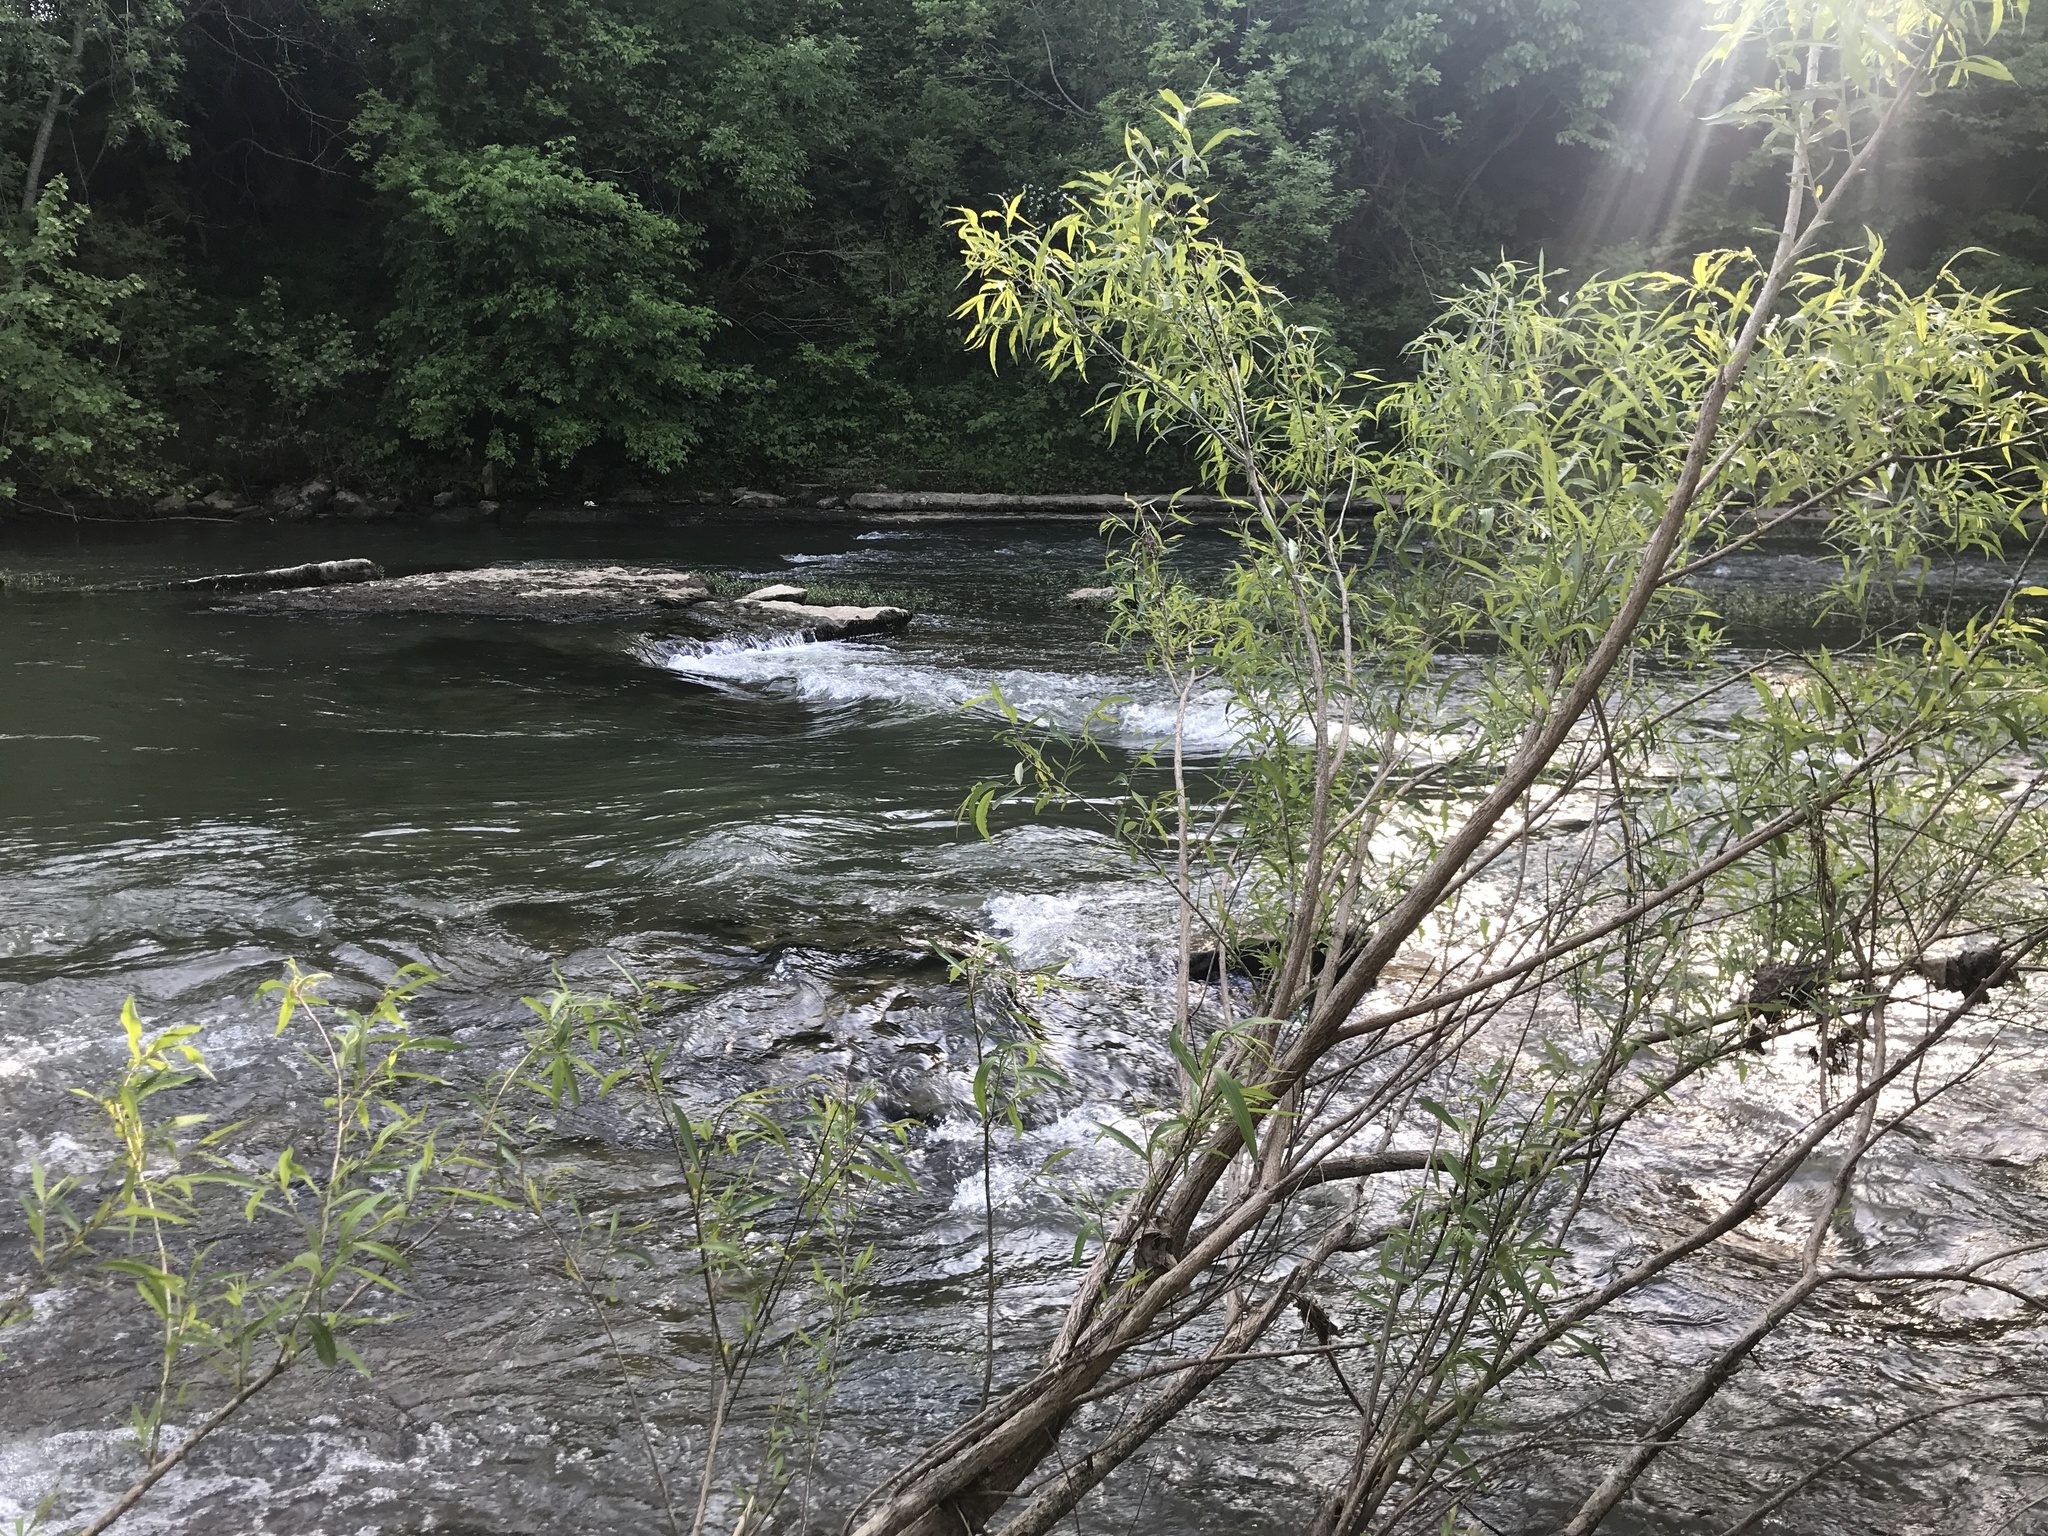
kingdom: Plantae
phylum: Tracheophyta
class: Magnoliopsida
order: Malpighiales
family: Salicaceae
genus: Salix
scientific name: Salix caroliniana
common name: Carolina willow
